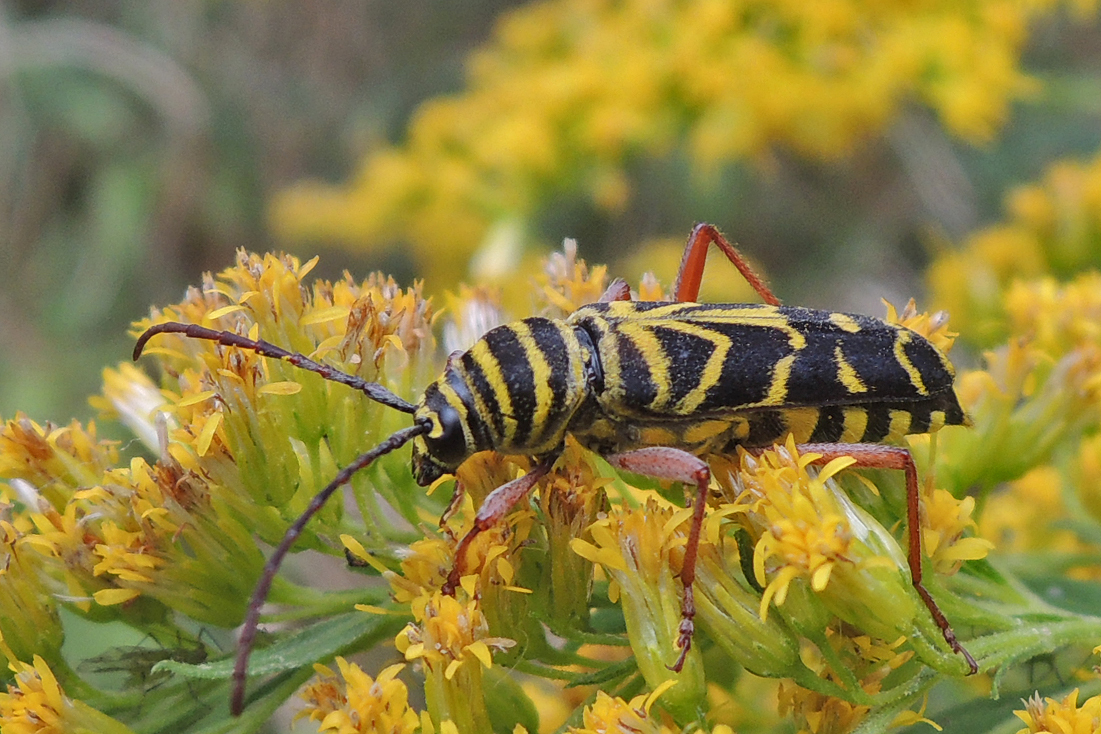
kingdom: Animalia
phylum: Arthropoda
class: Insecta
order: Coleoptera
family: Cerambycidae
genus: Megacyllene
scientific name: Megacyllene robiniae
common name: Locust borer
